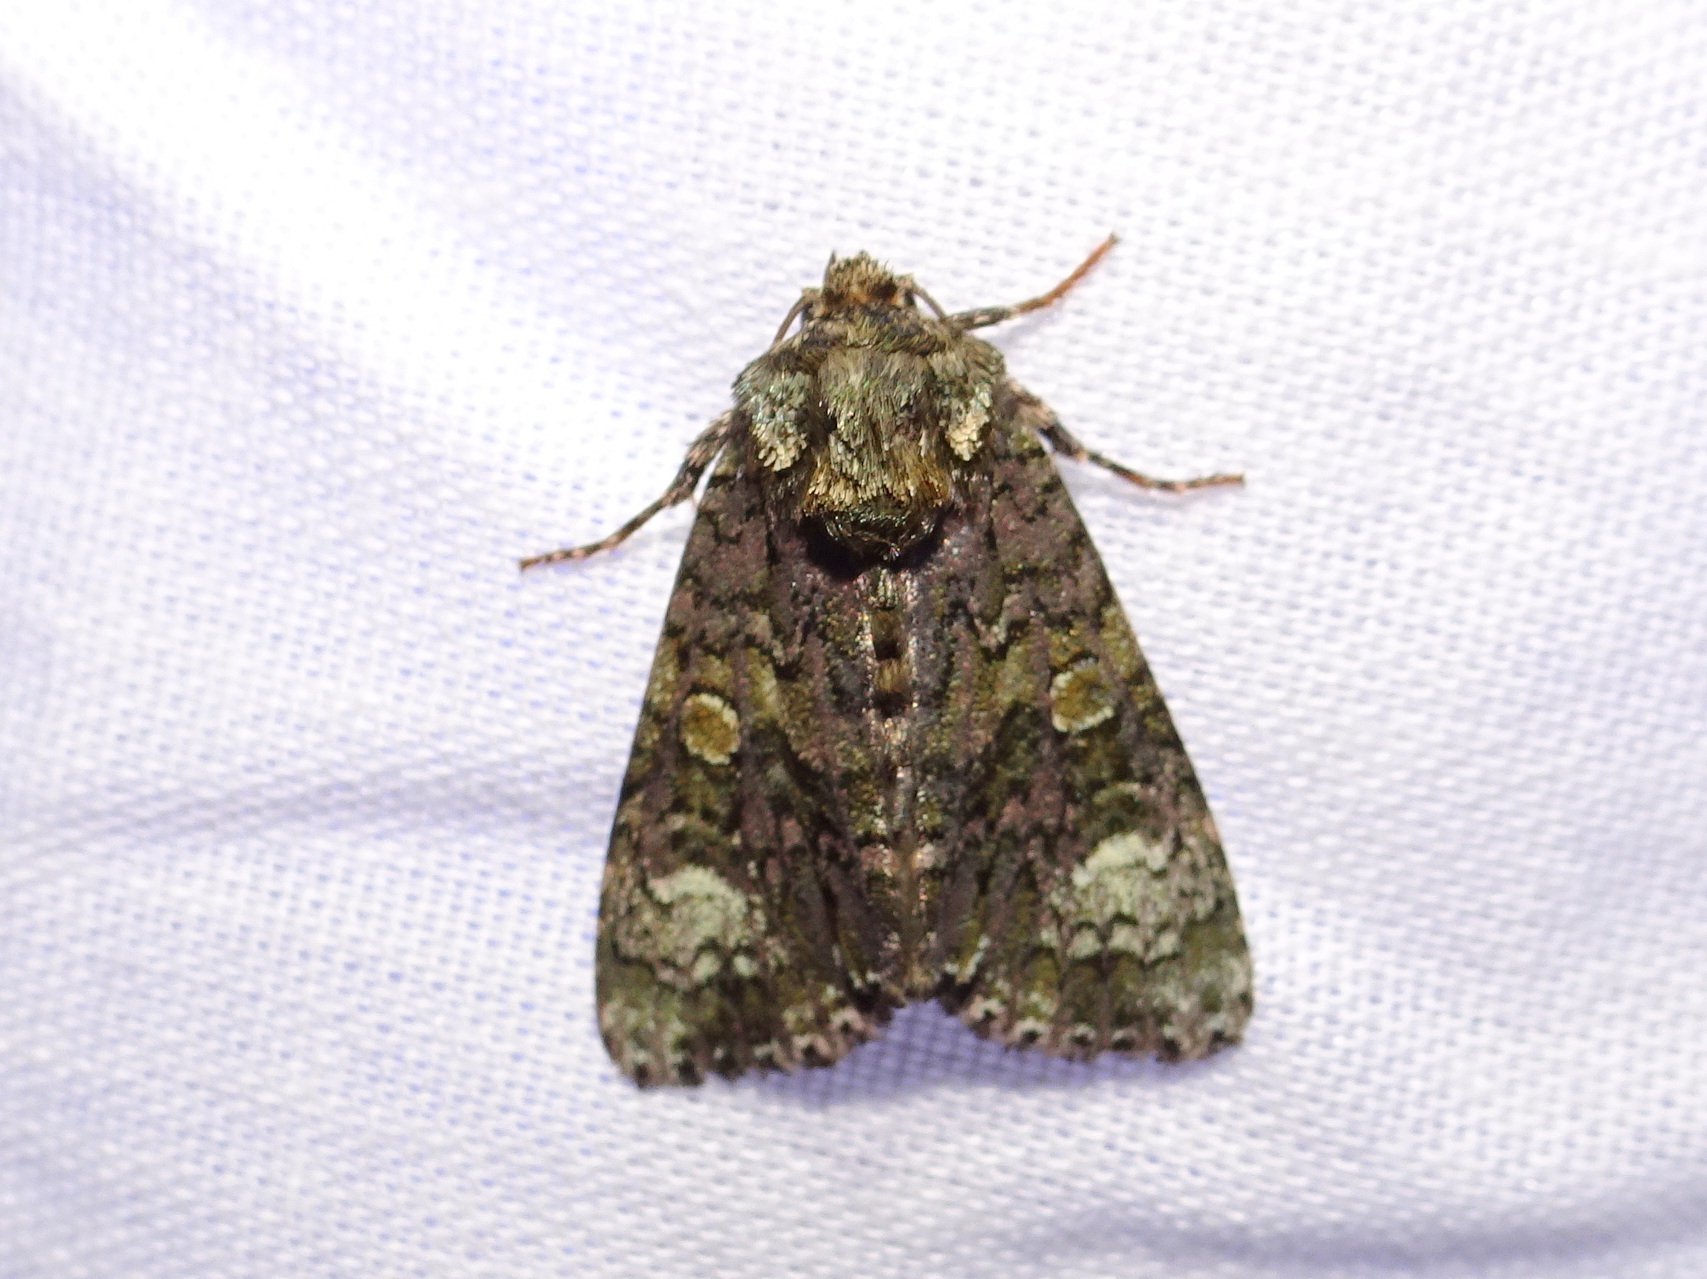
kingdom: Animalia
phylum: Arthropoda
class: Insecta
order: Lepidoptera
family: Noctuidae
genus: Craniophora
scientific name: Craniophora ligustri
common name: Coronet
